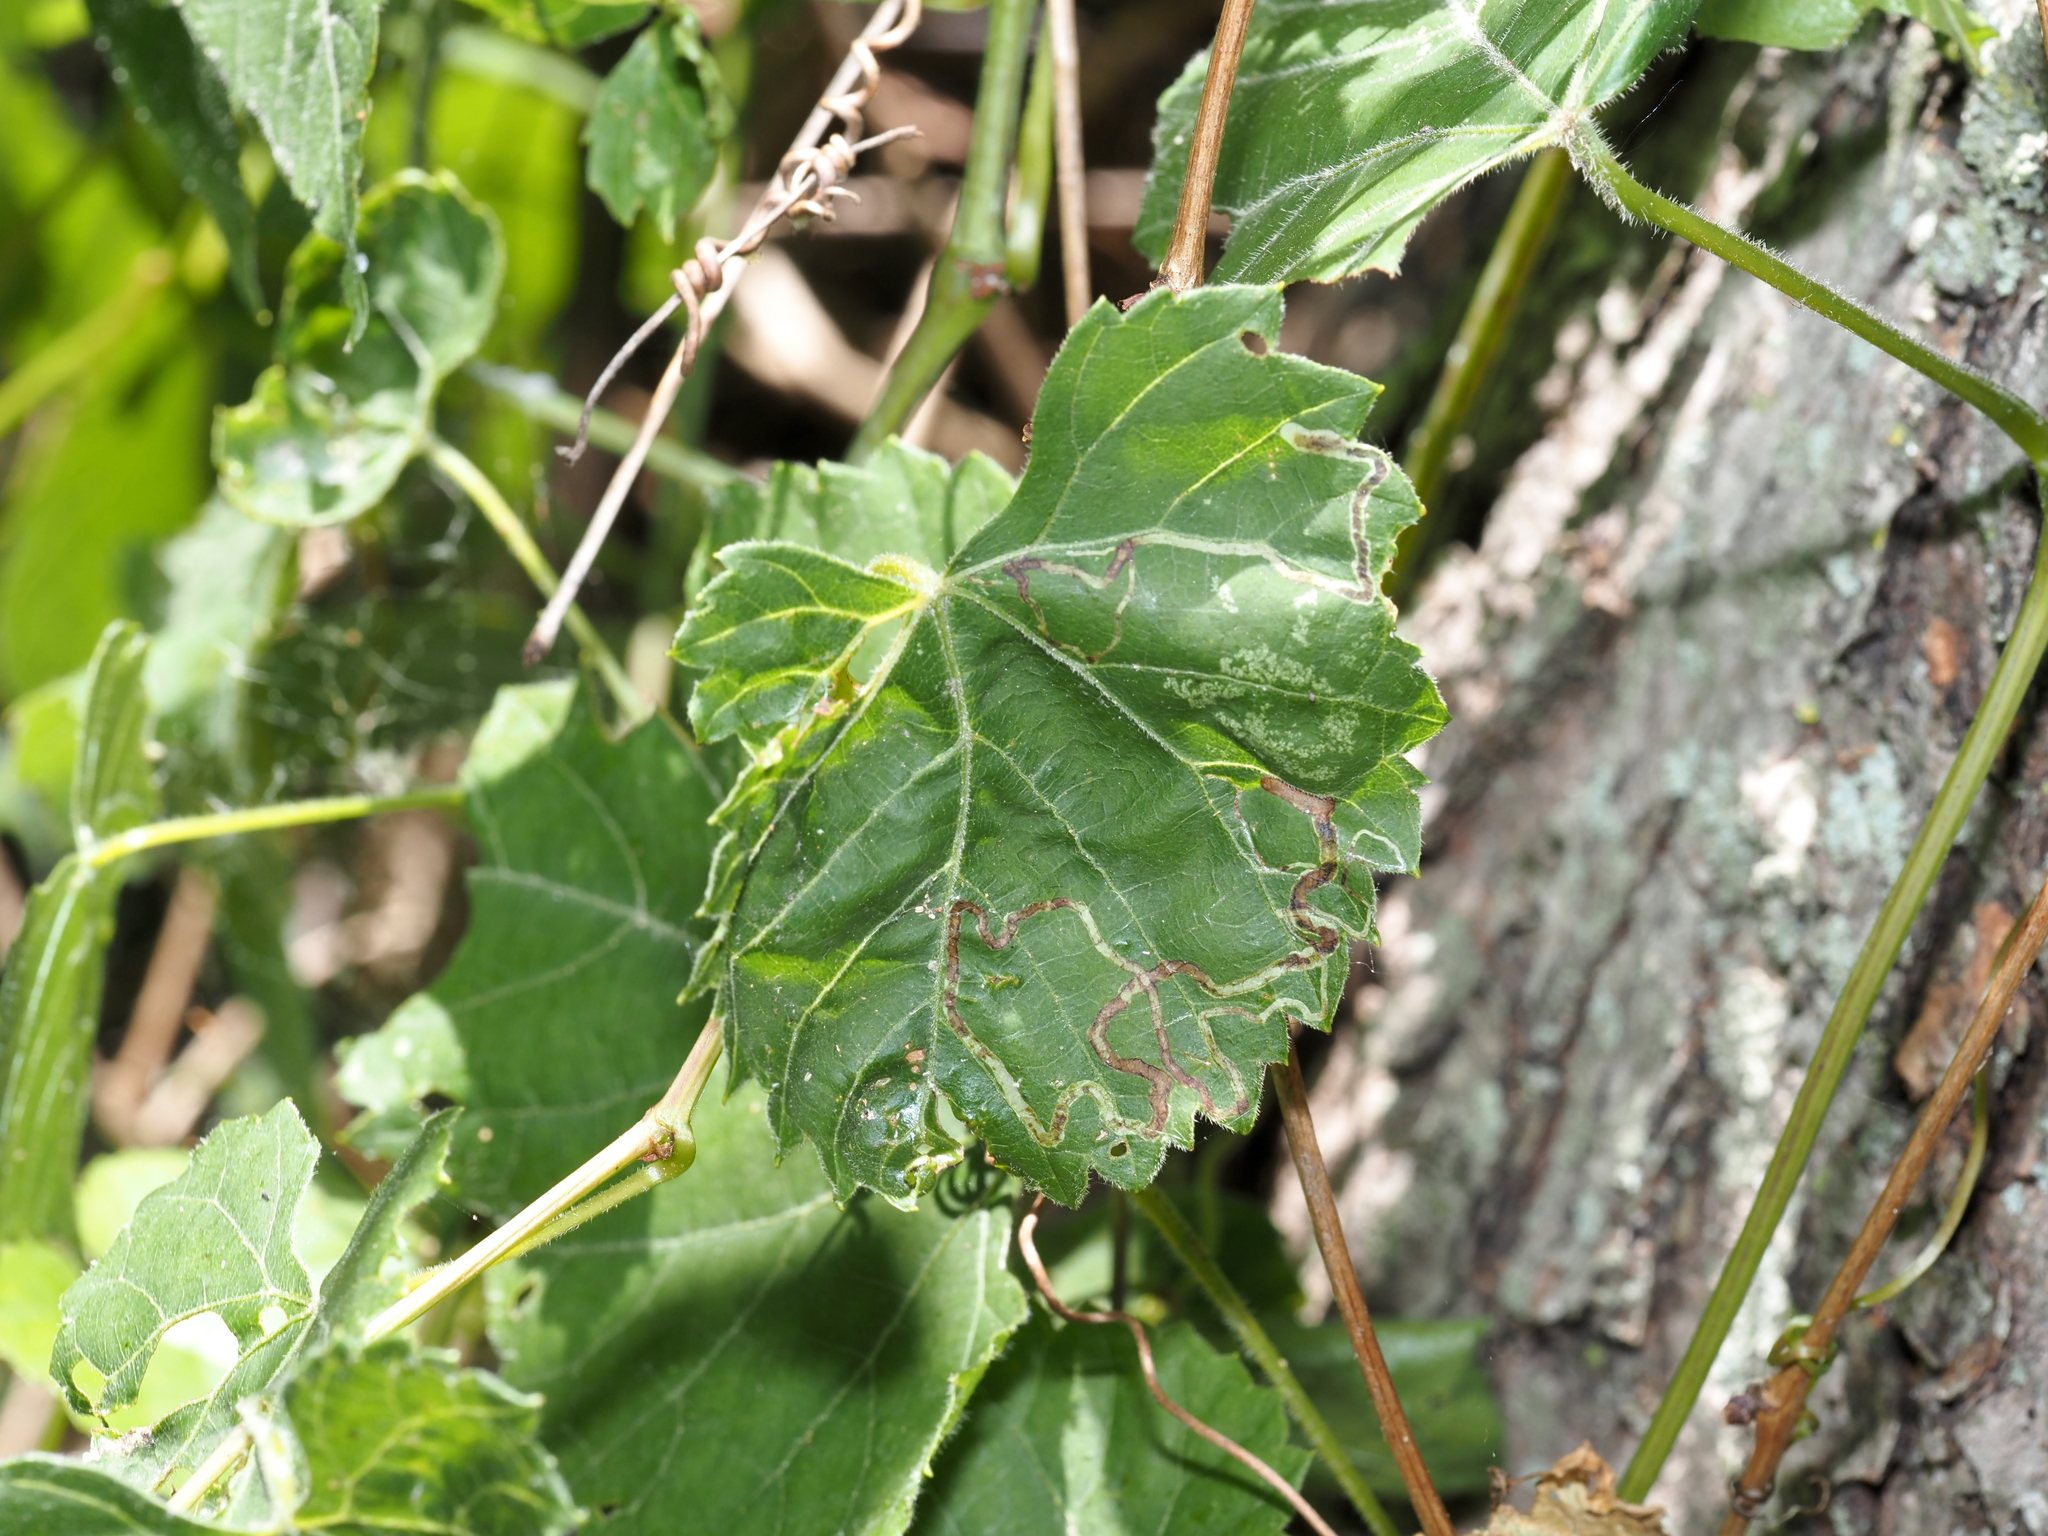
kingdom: Animalia
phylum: Arthropoda
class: Insecta
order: Lepidoptera
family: Gracillariidae
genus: Phyllocnistis
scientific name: Phyllocnistis vitifoliella
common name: Grape leaf-miner moth
